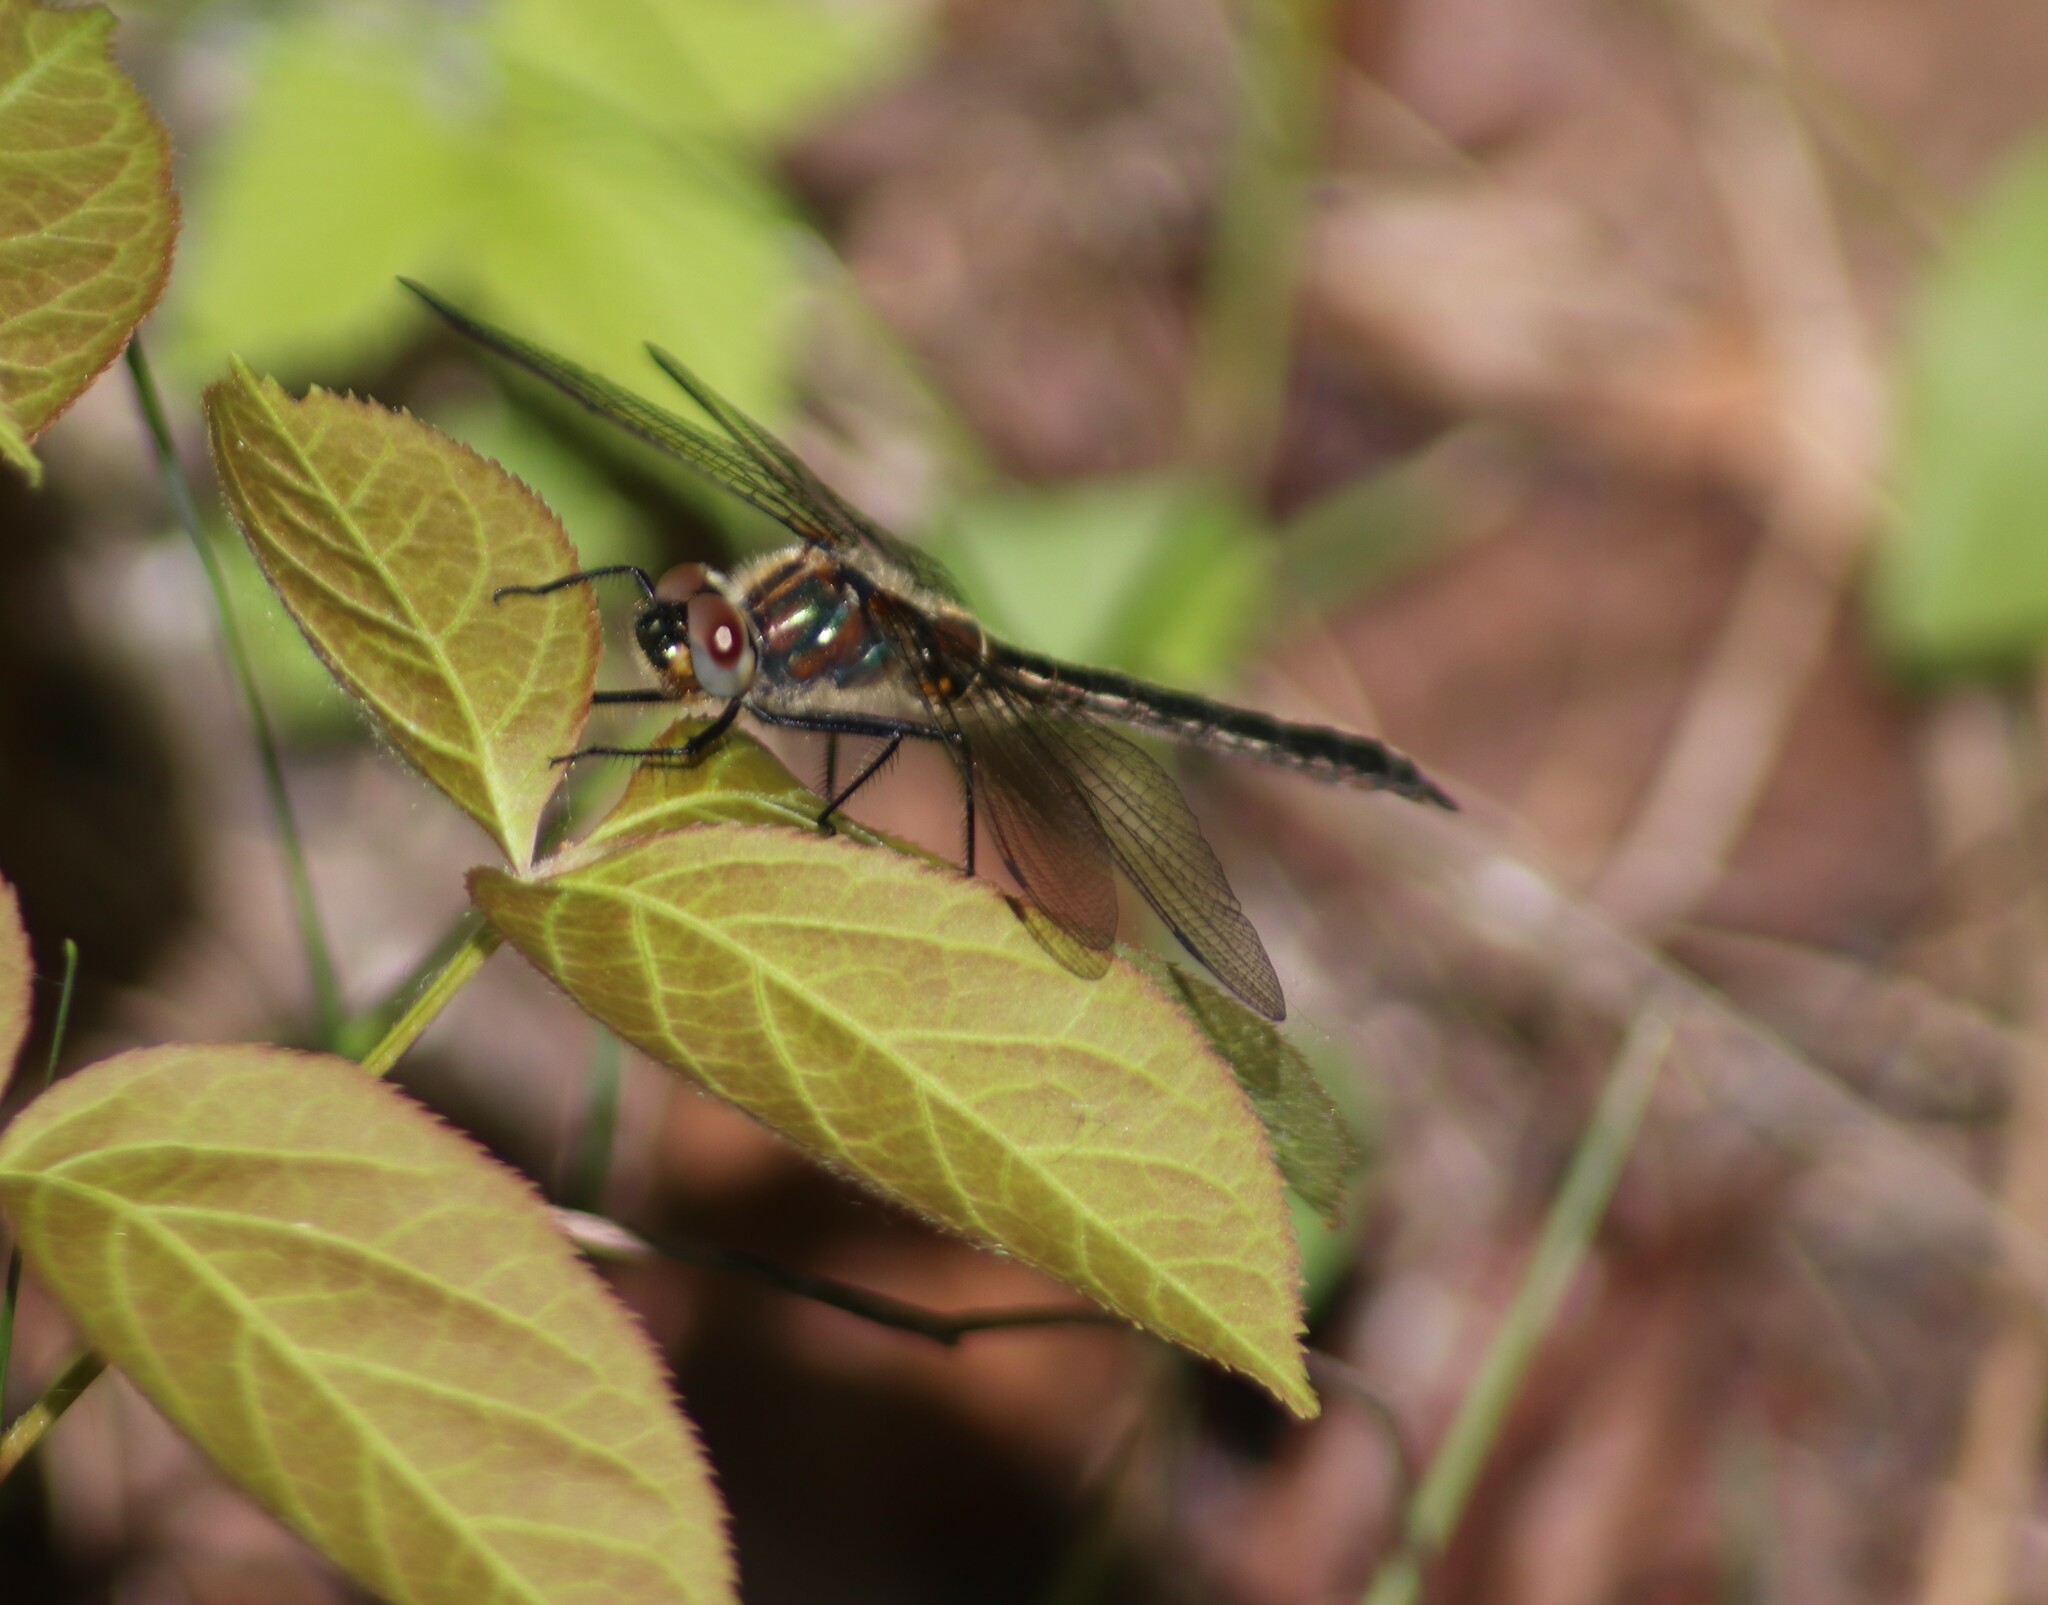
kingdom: Animalia
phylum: Arthropoda
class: Insecta
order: Odonata
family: Corduliidae
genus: Cordulia
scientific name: Cordulia shurtleffii
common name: American emerald
